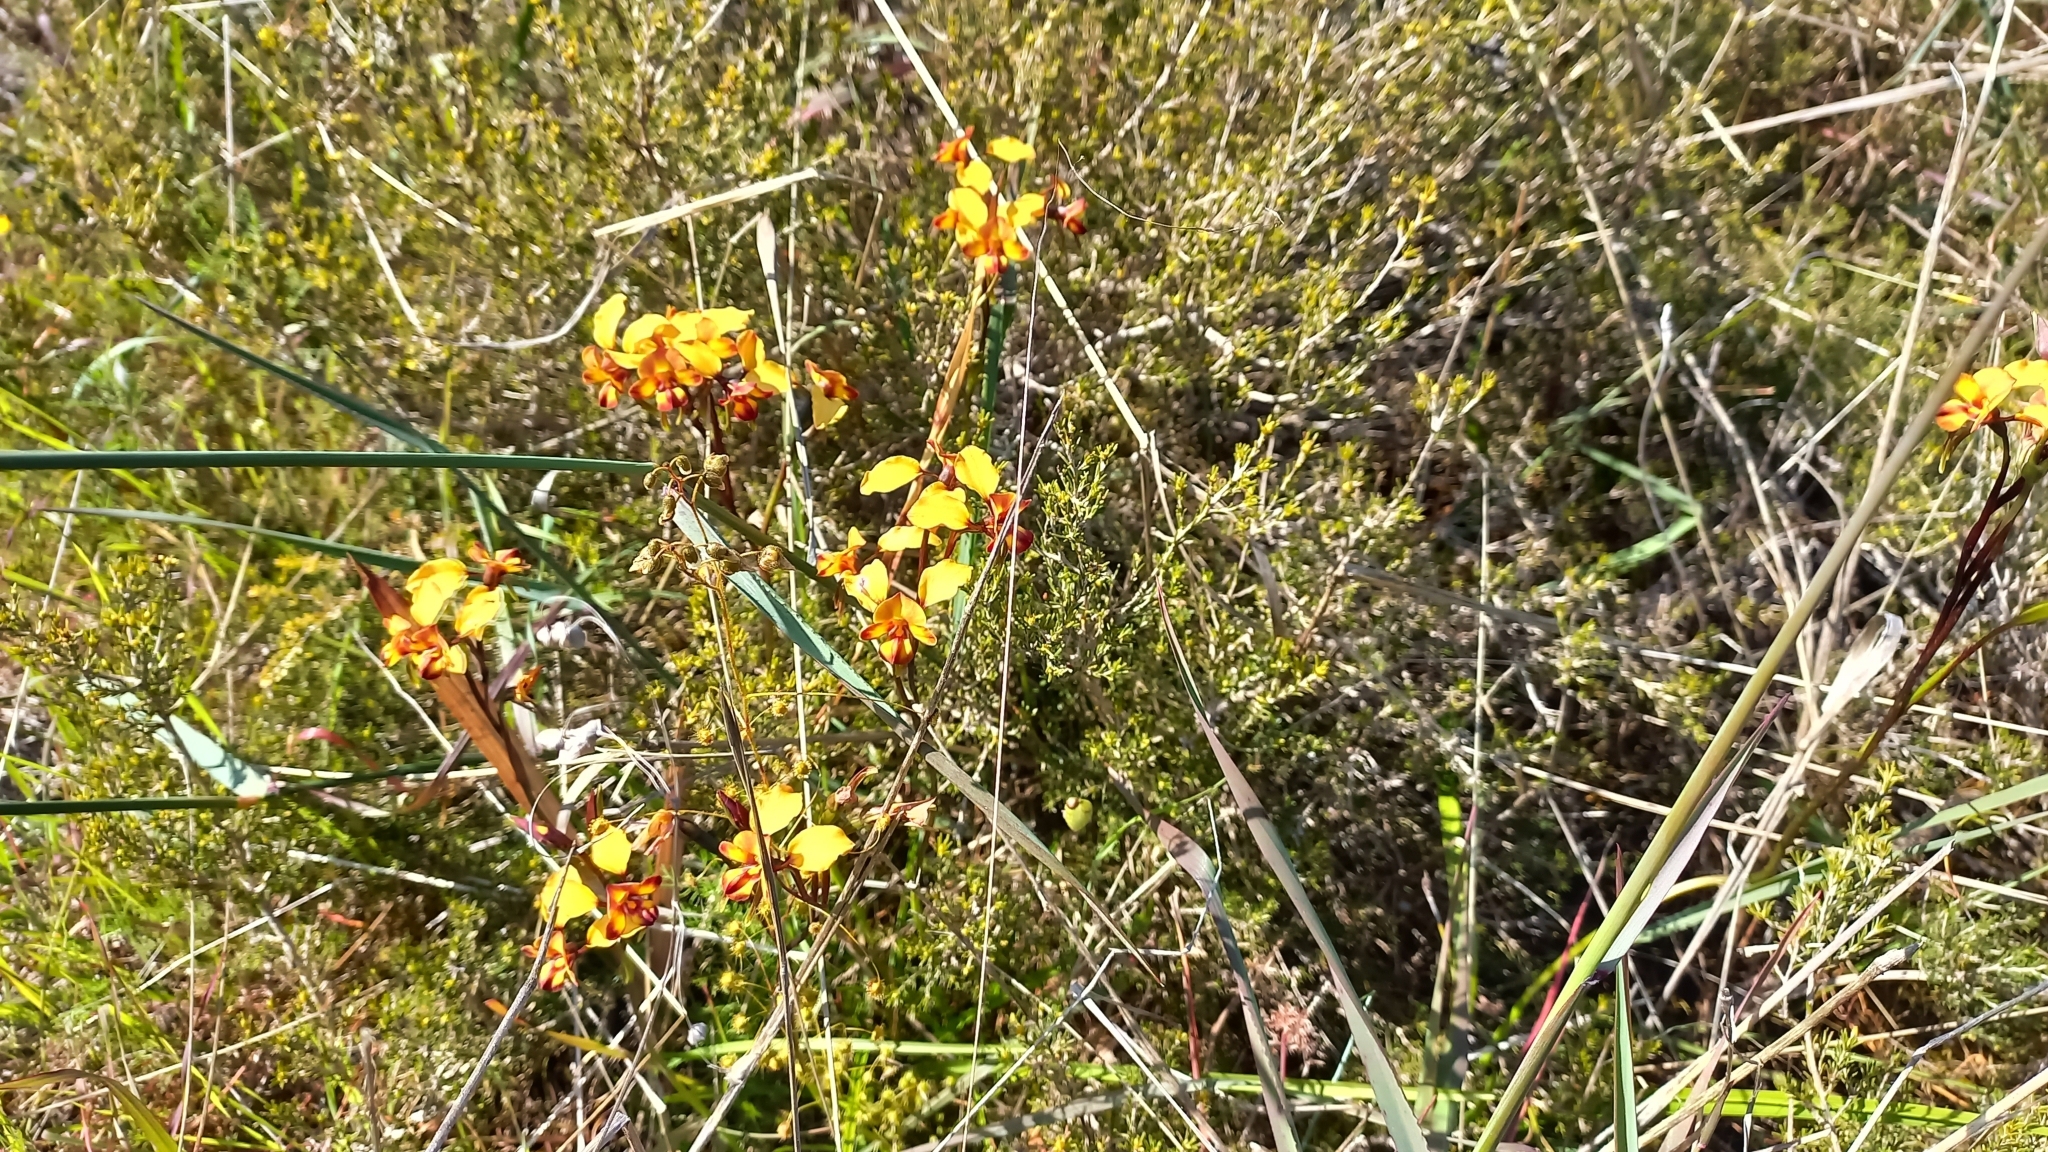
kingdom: Plantae
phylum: Tracheophyta
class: Liliopsida
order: Asparagales
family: Orchidaceae
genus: Diuris
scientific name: Diuris corymbosa
